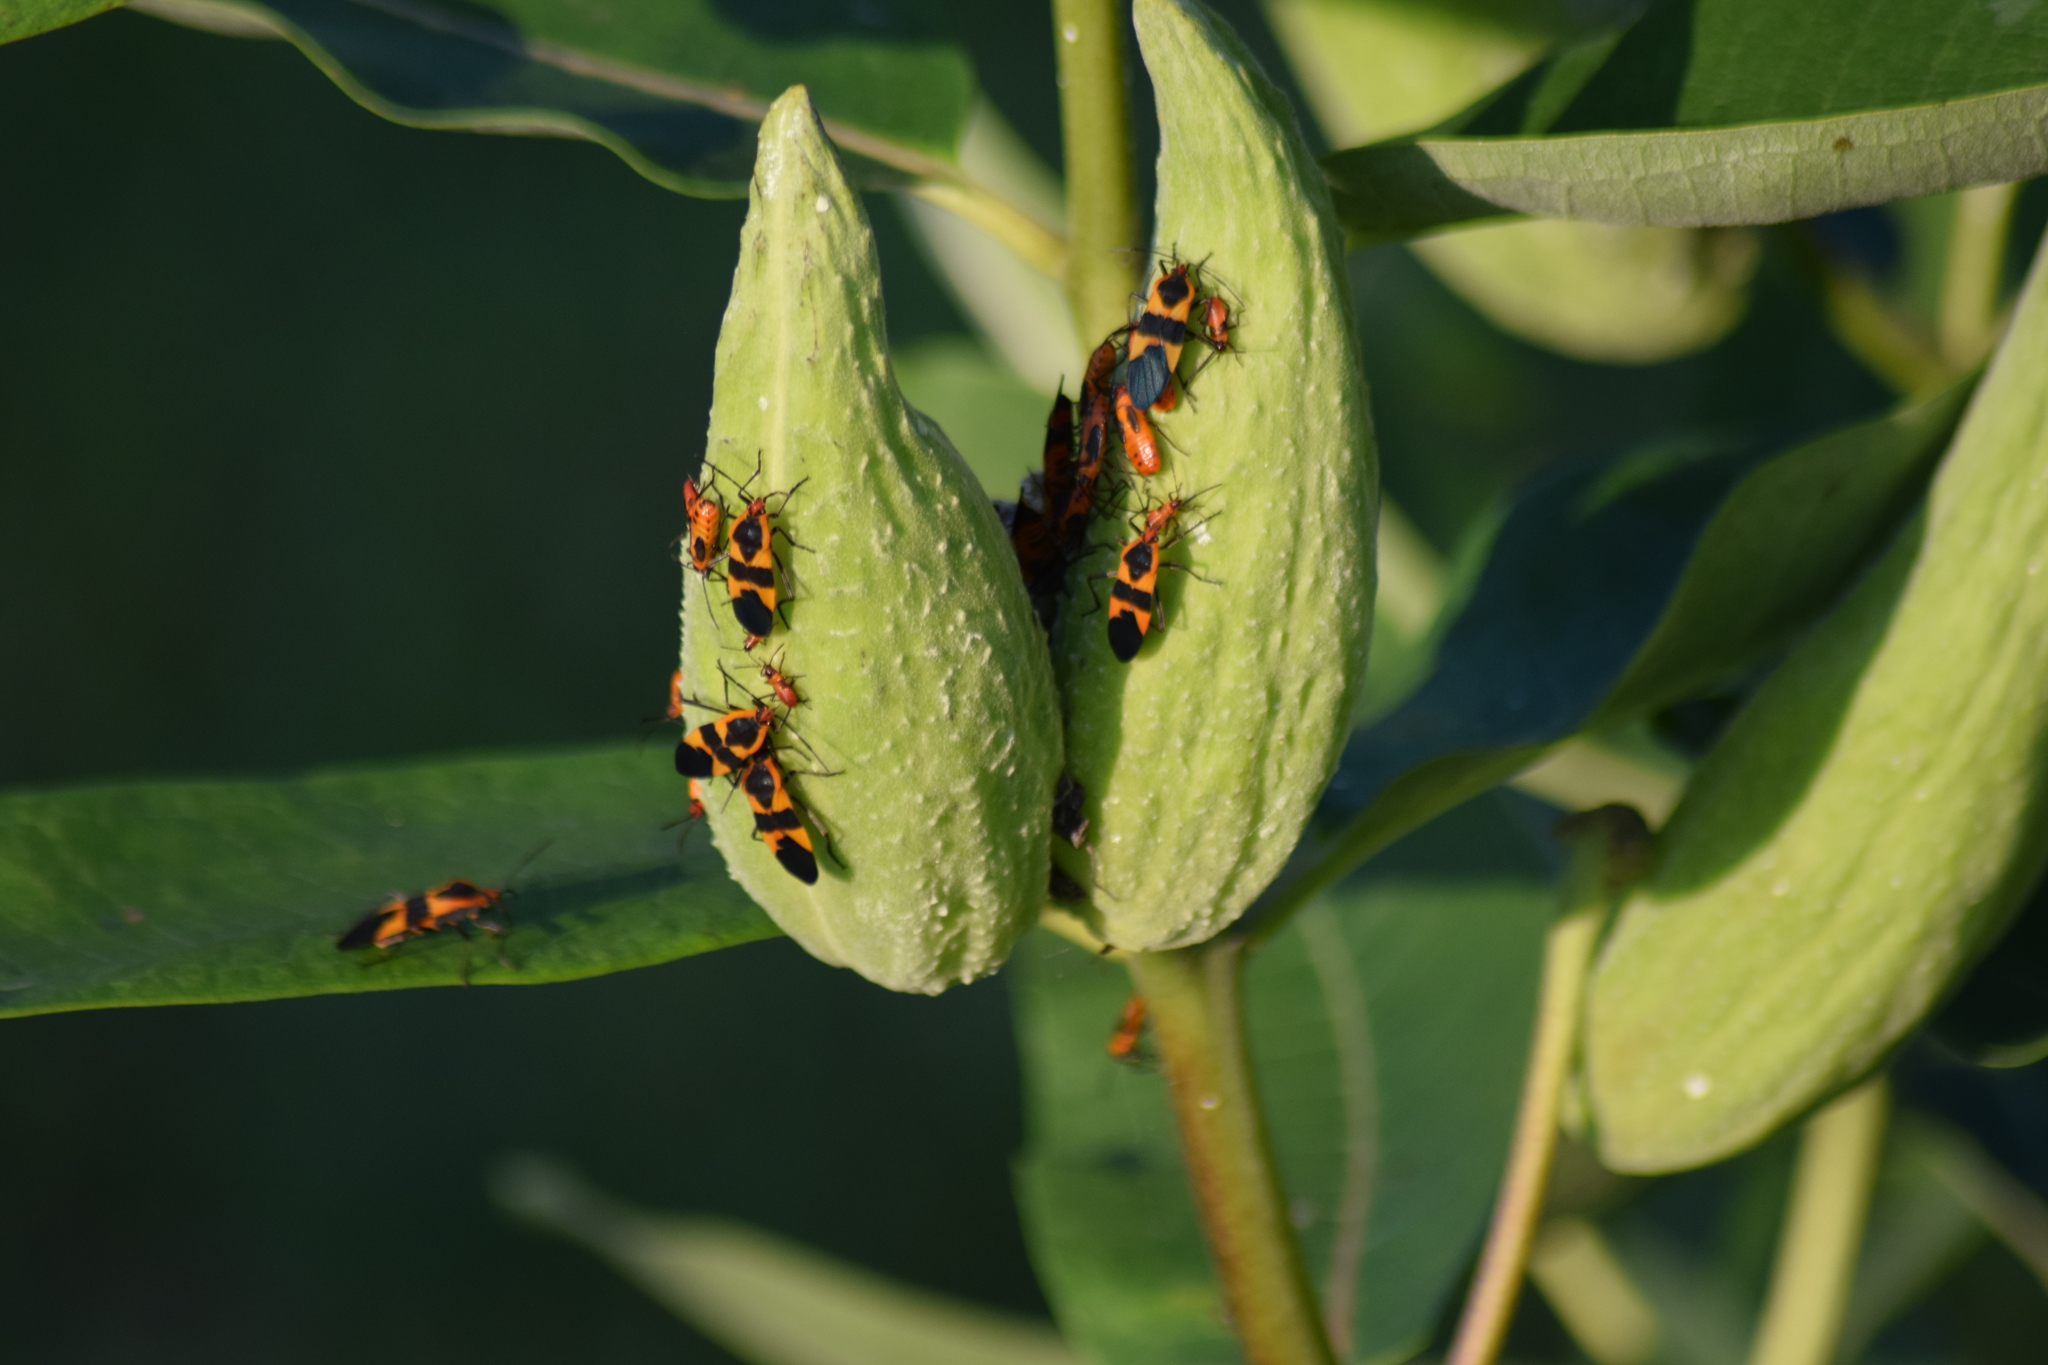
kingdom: Animalia
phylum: Arthropoda
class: Insecta
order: Hemiptera
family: Lygaeidae
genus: Oncopeltus
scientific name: Oncopeltus fasciatus
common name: Large milkweed bug
